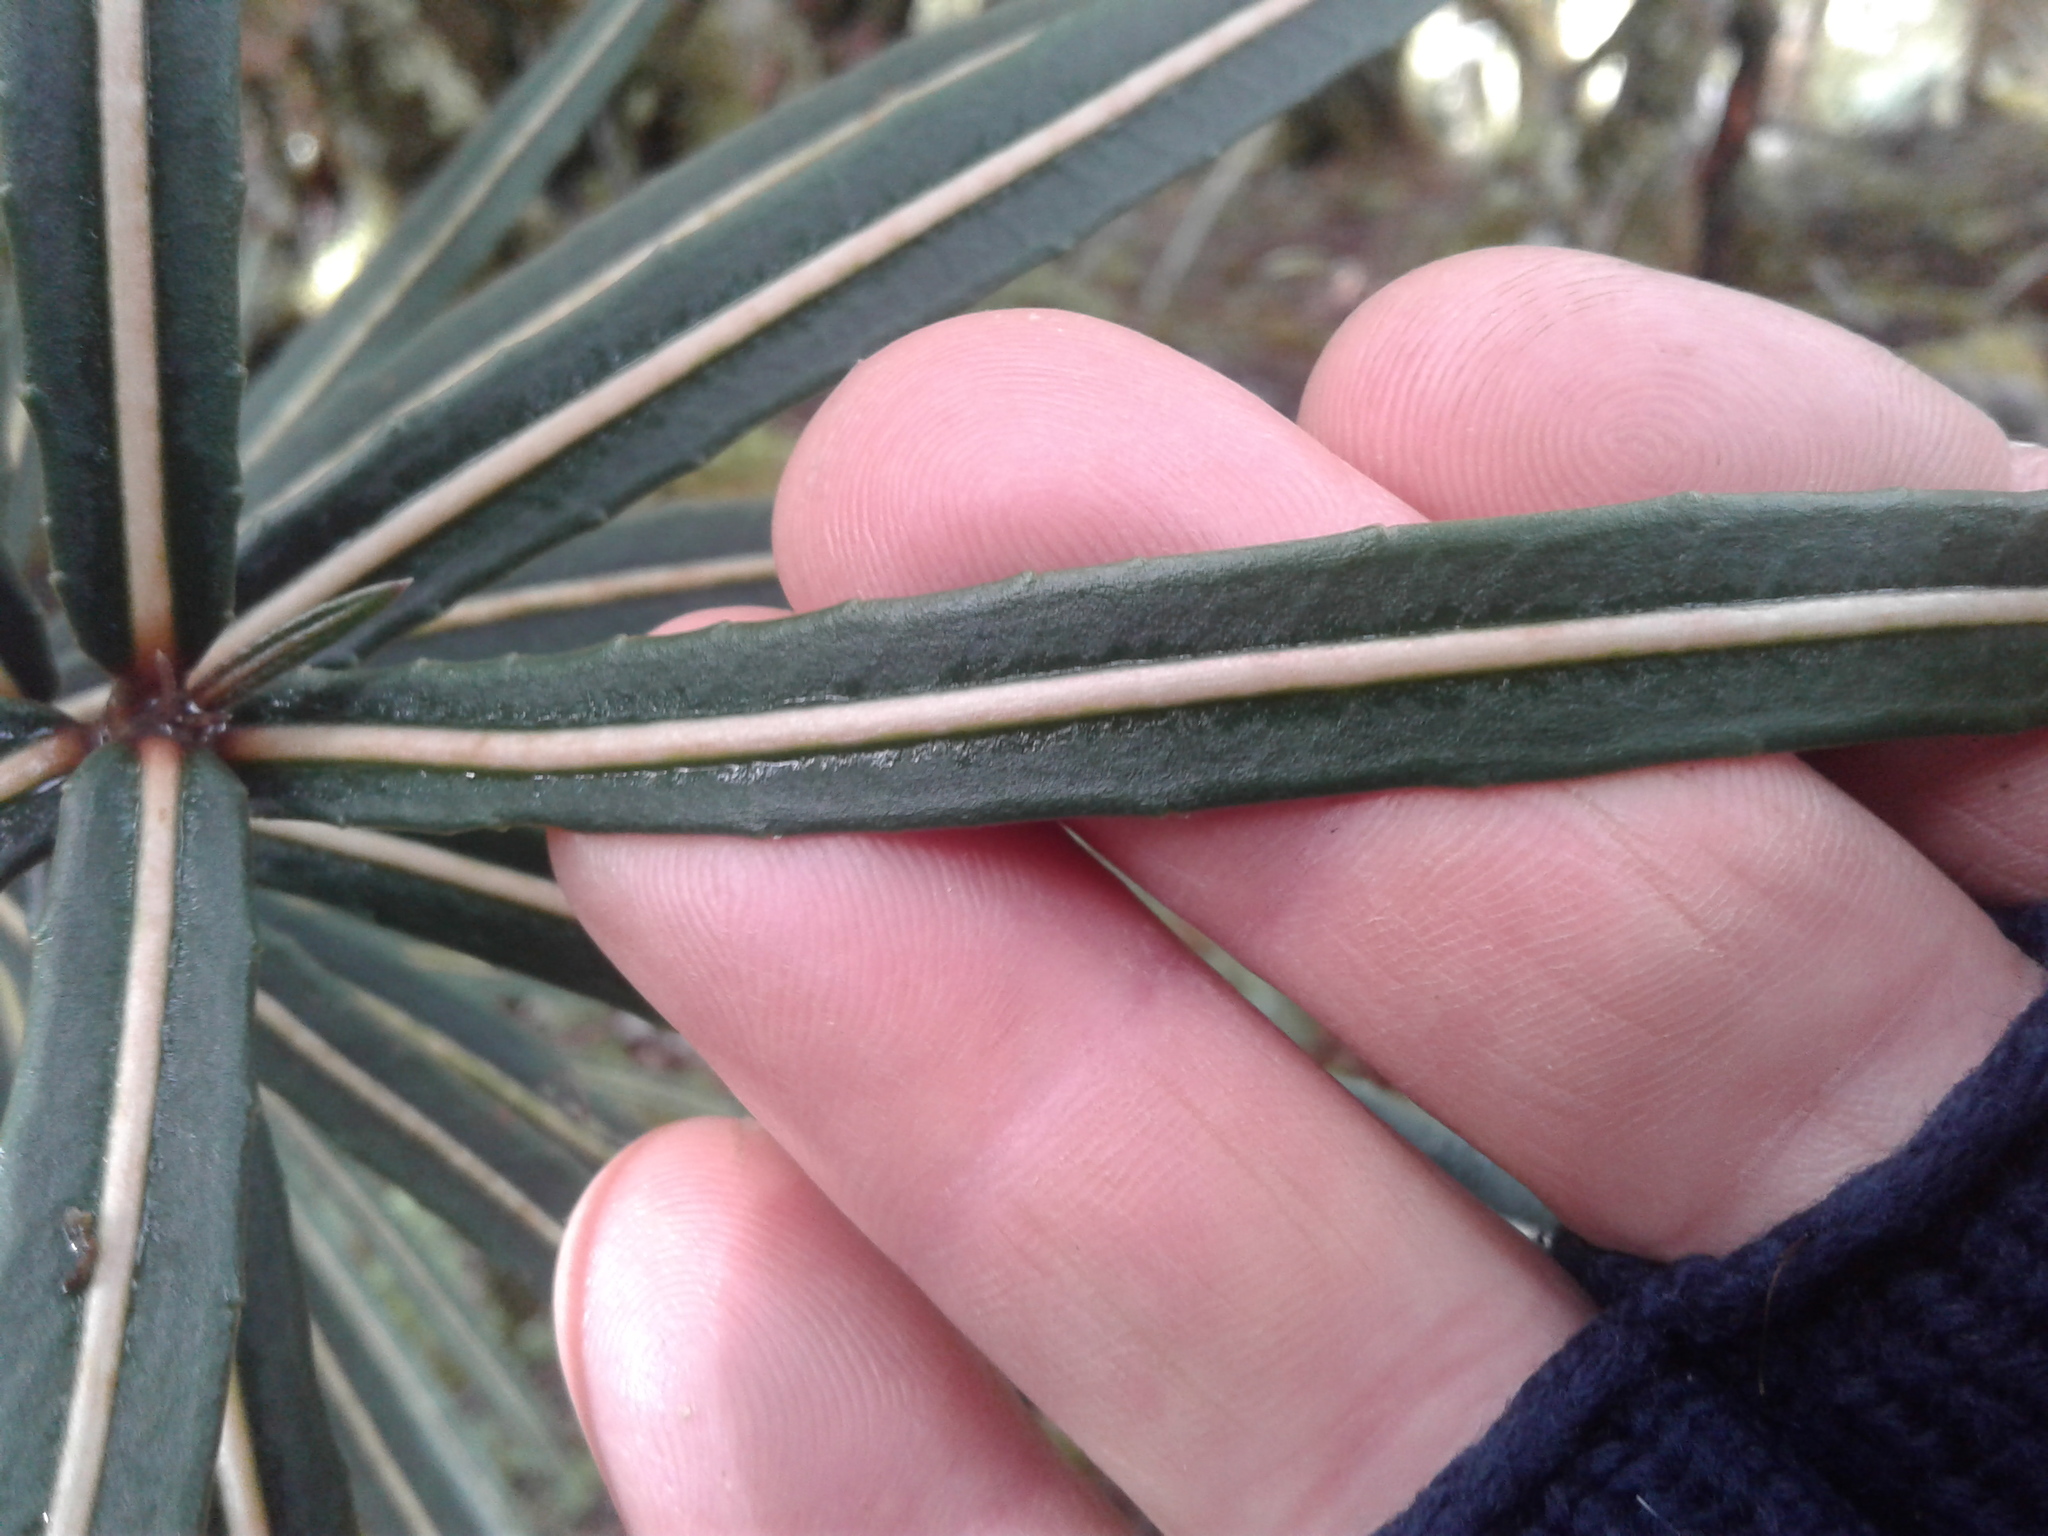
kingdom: Plantae
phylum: Tracheophyta
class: Magnoliopsida
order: Apiales
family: Araliaceae
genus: Pseudopanax
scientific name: Pseudopanax linearis
